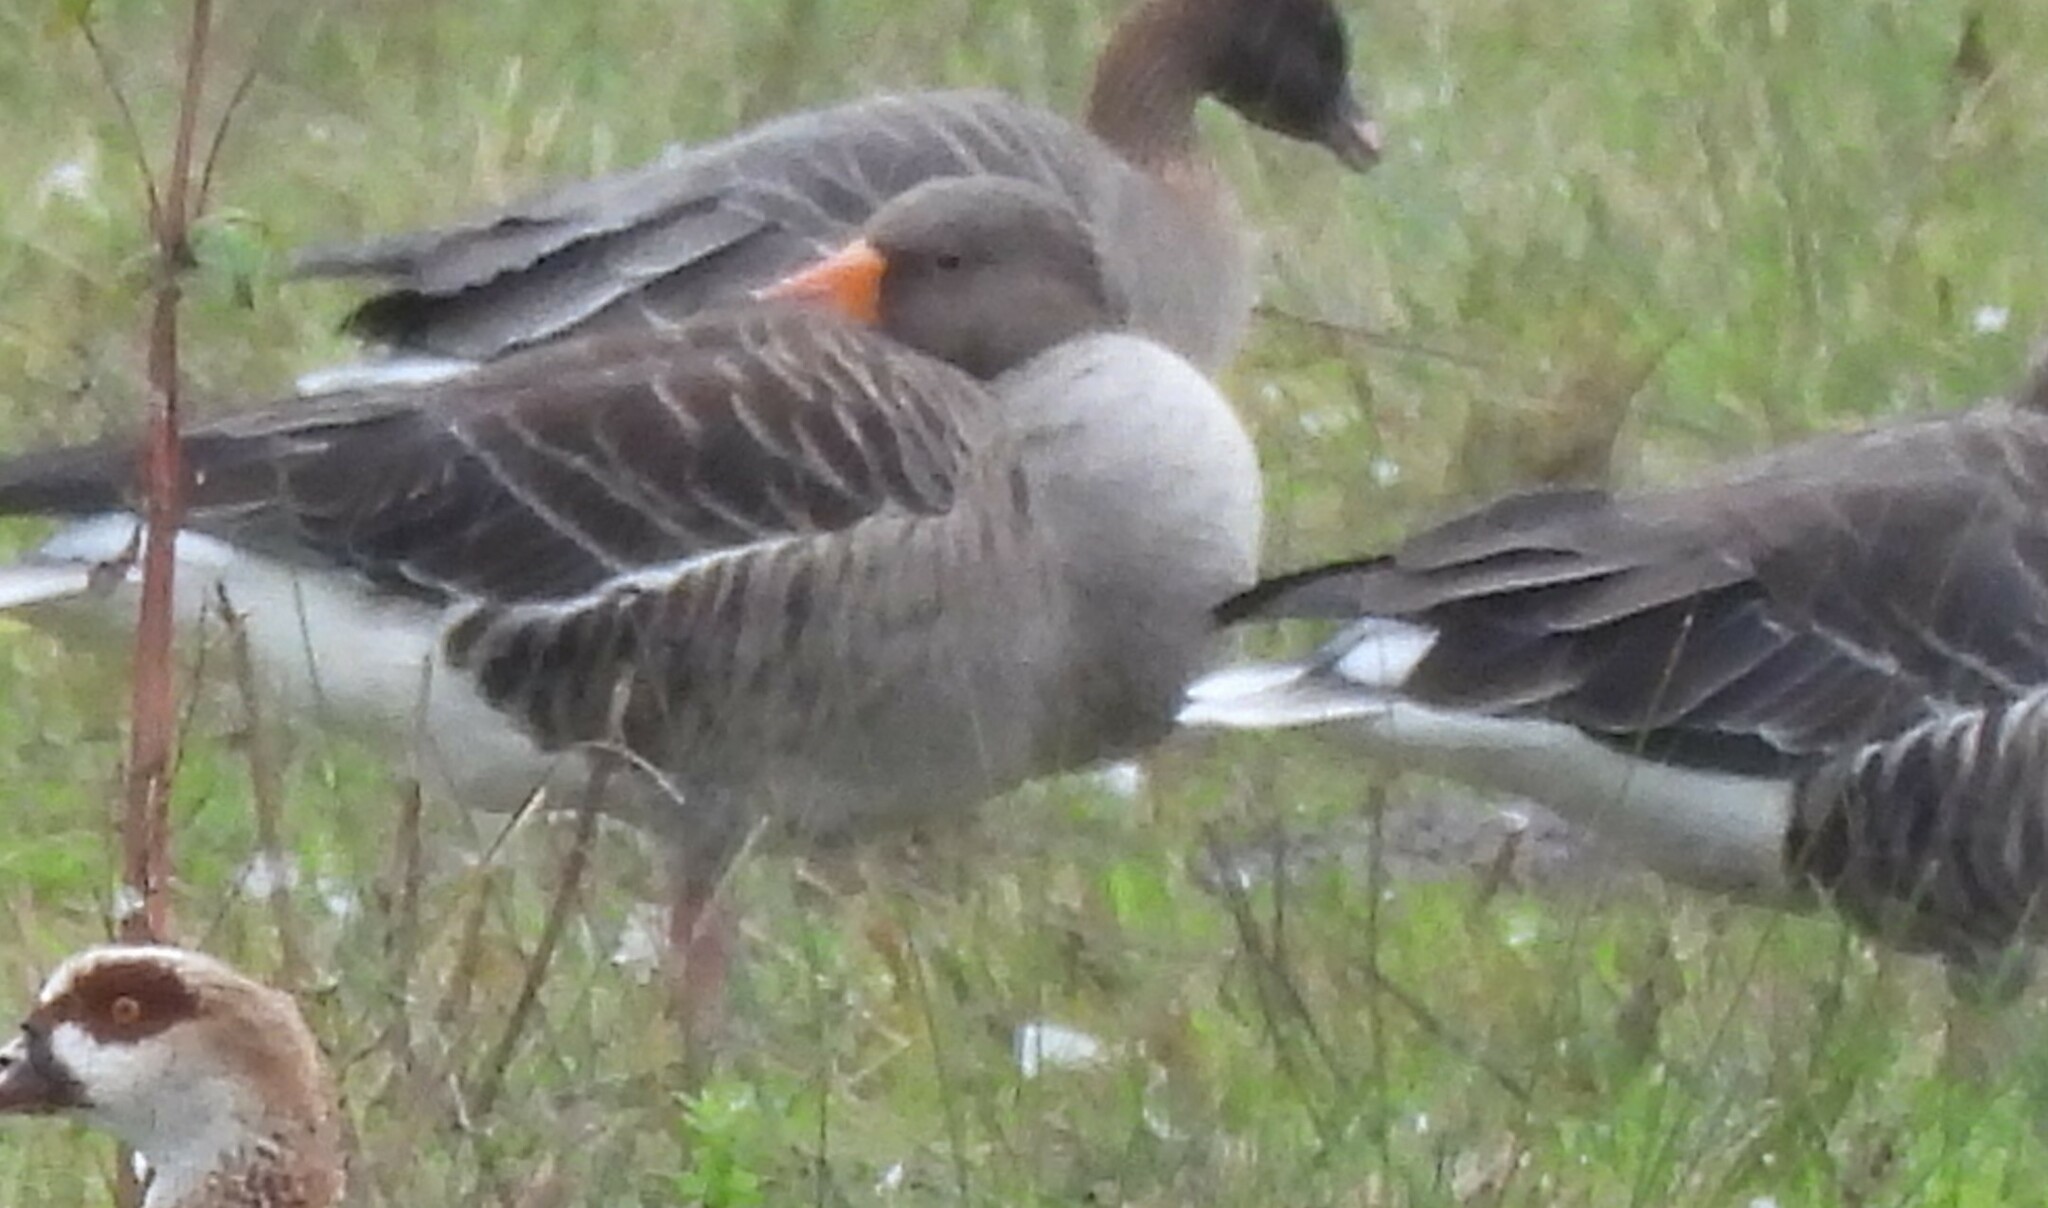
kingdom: Animalia
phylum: Chordata
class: Aves
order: Anseriformes
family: Anatidae
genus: Anser
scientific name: Anser anser
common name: Greylag goose
